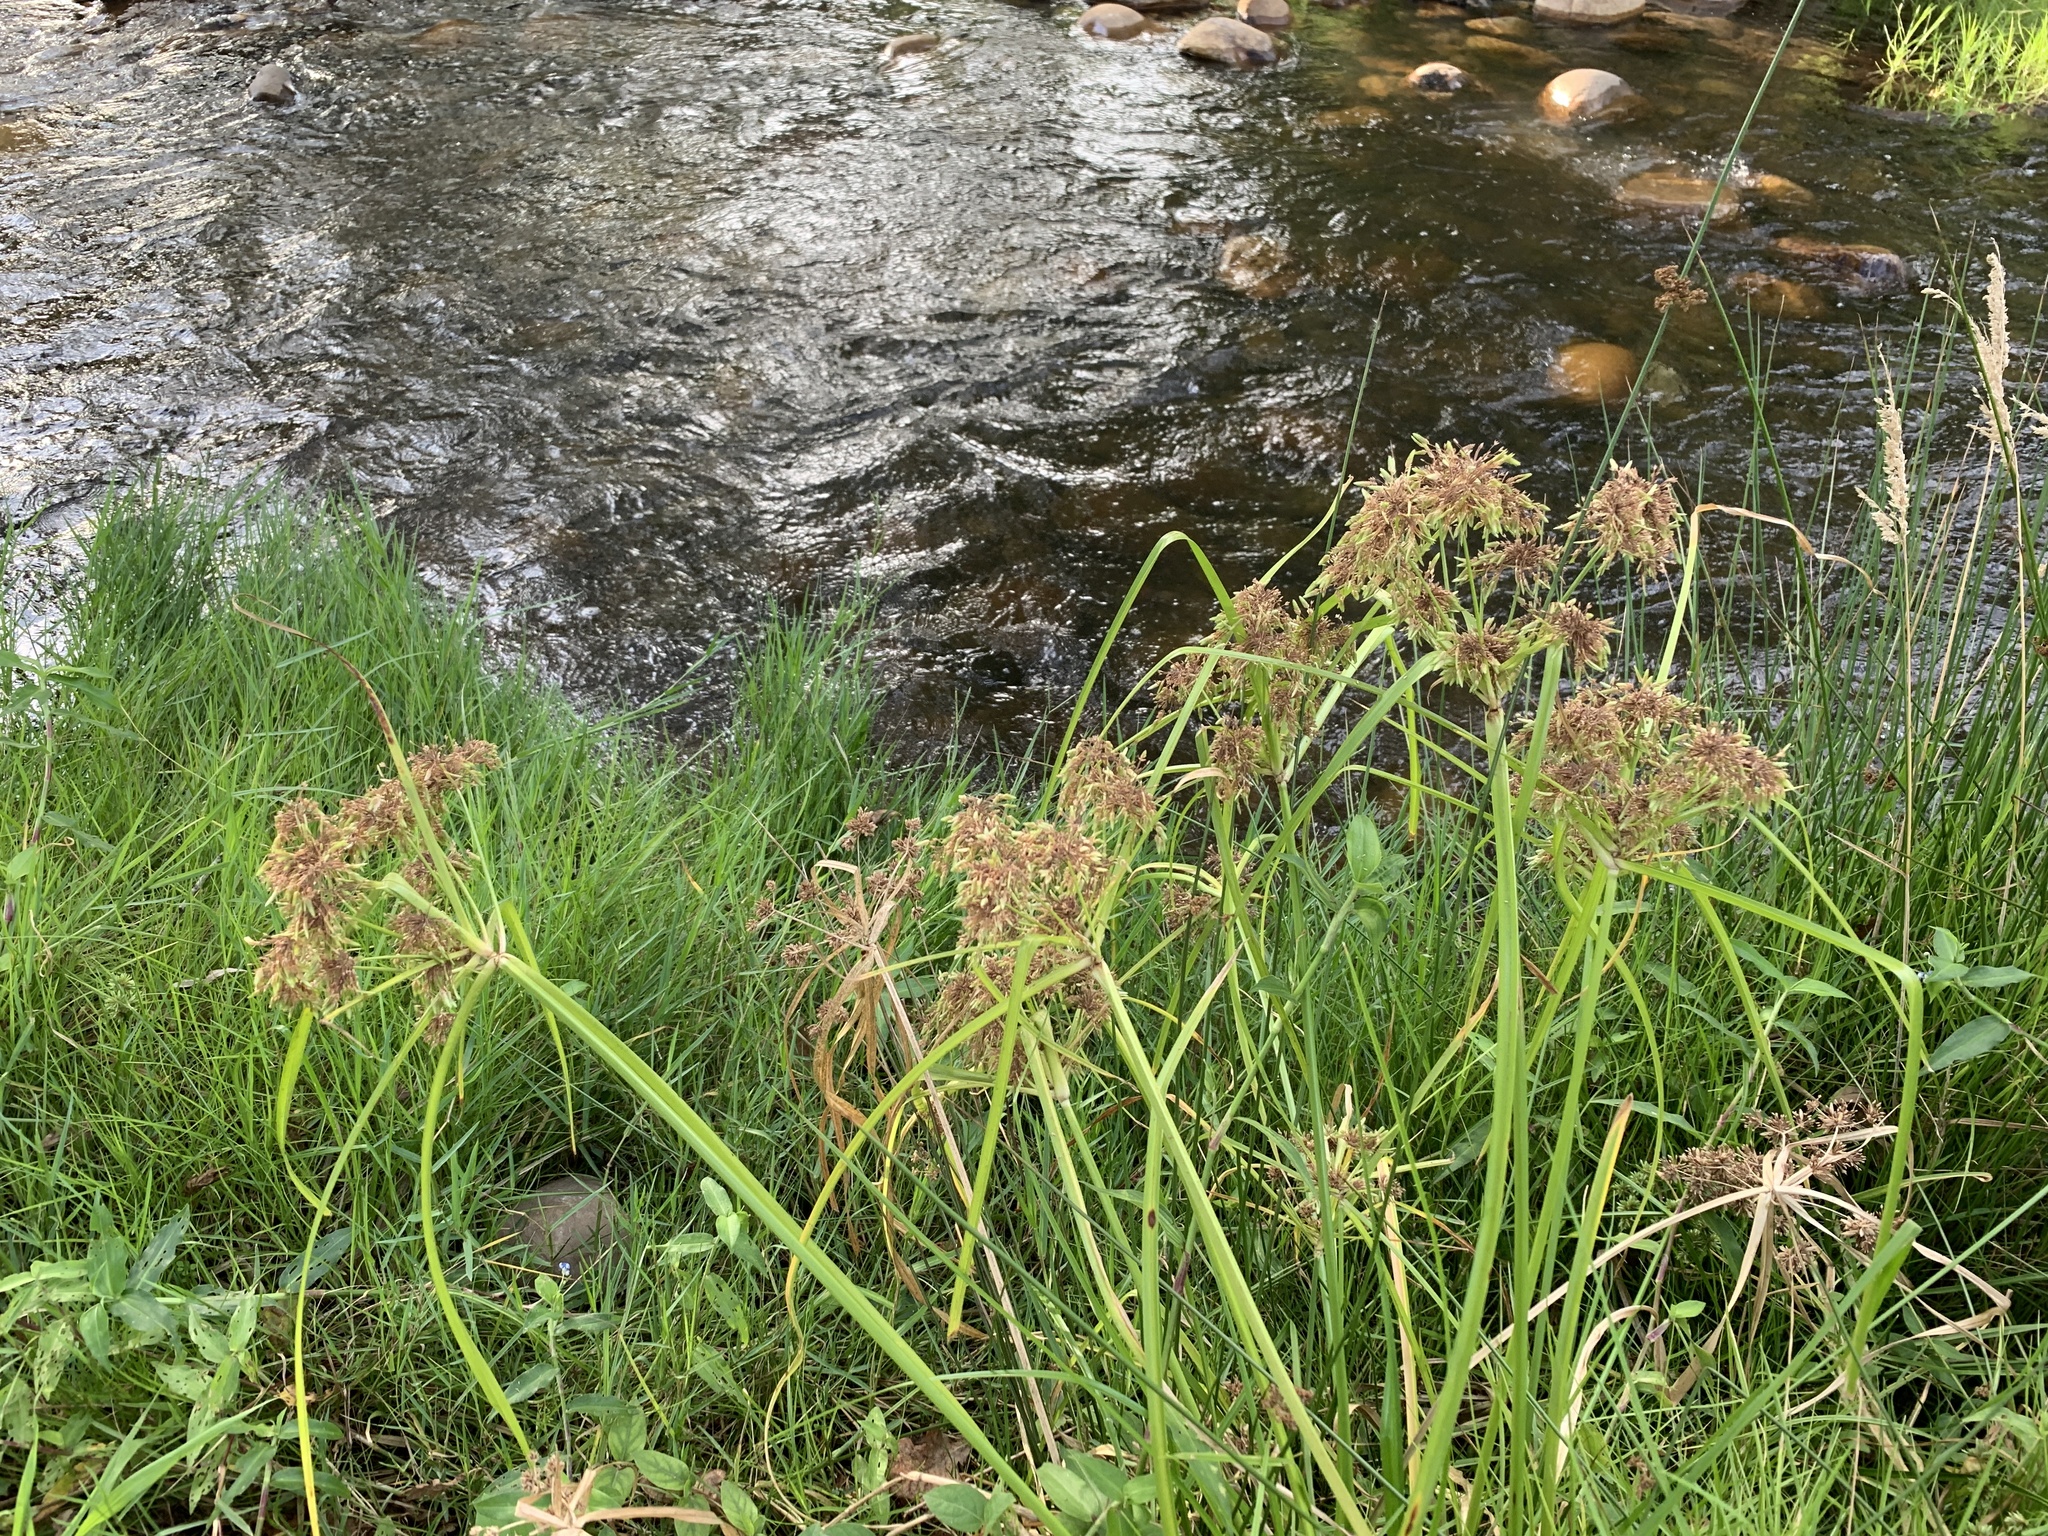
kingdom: Plantae
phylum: Tracheophyta
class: Liliopsida
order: Poales
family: Cyperaceae
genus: Cyperus
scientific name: Cyperus eragrostis
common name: Tall flatsedge
